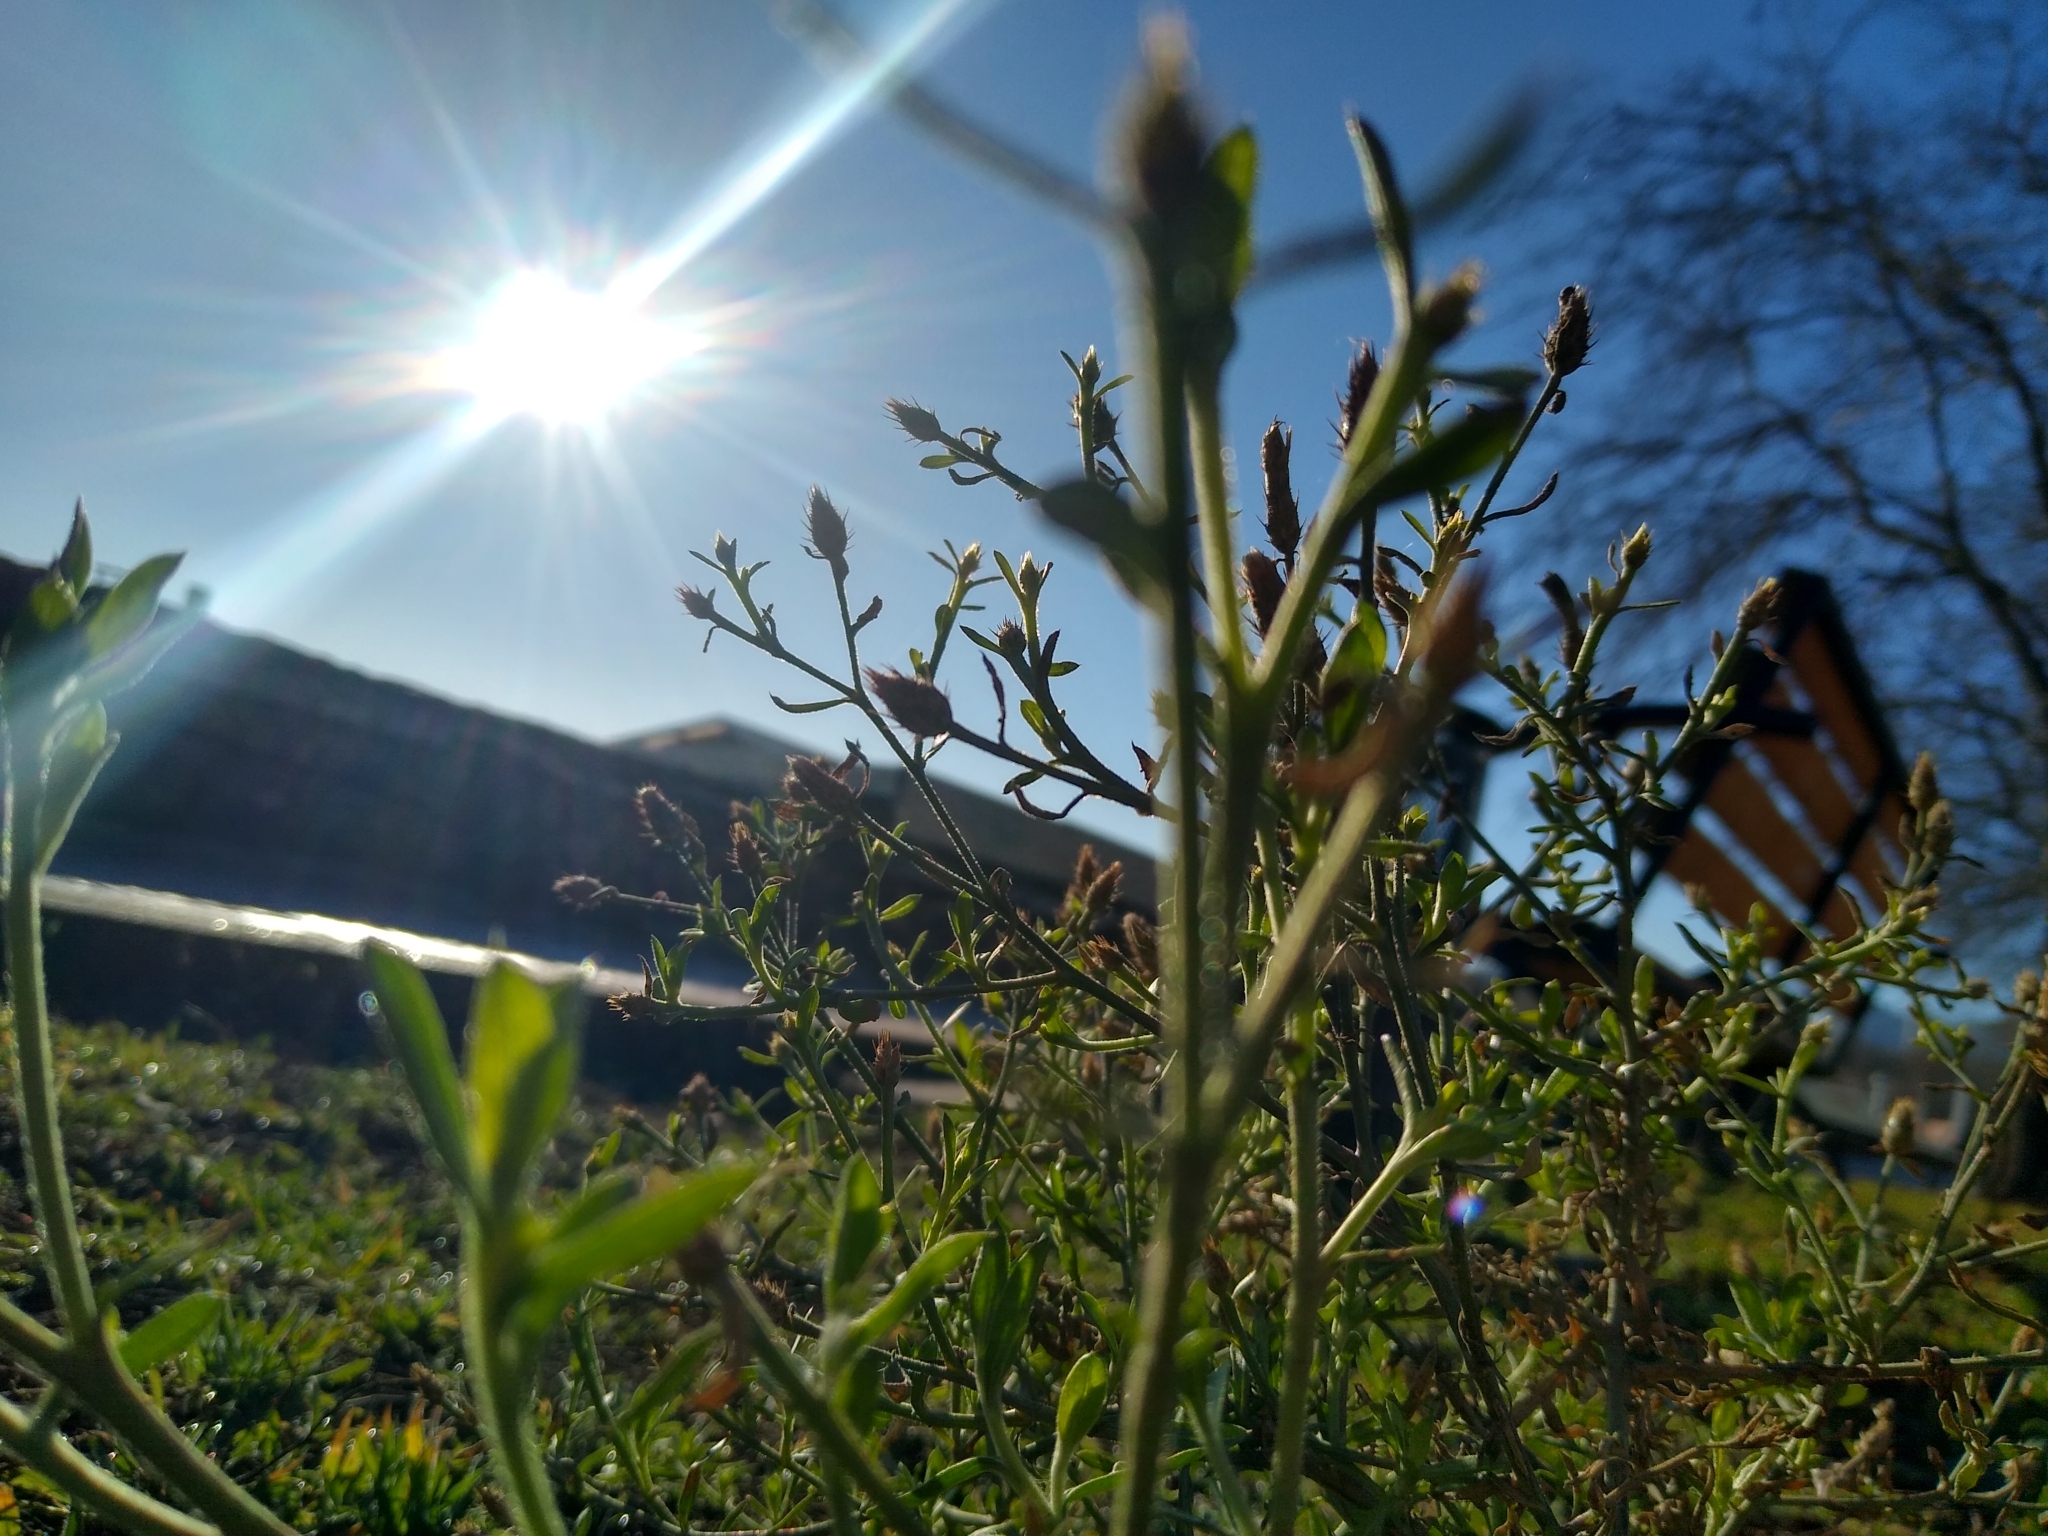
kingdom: Plantae
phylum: Tracheophyta
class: Magnoliopsida
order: Asterales
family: Asteraceae
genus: Centaurea
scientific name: Centaurea diffusa
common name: Diffuse knapweed
